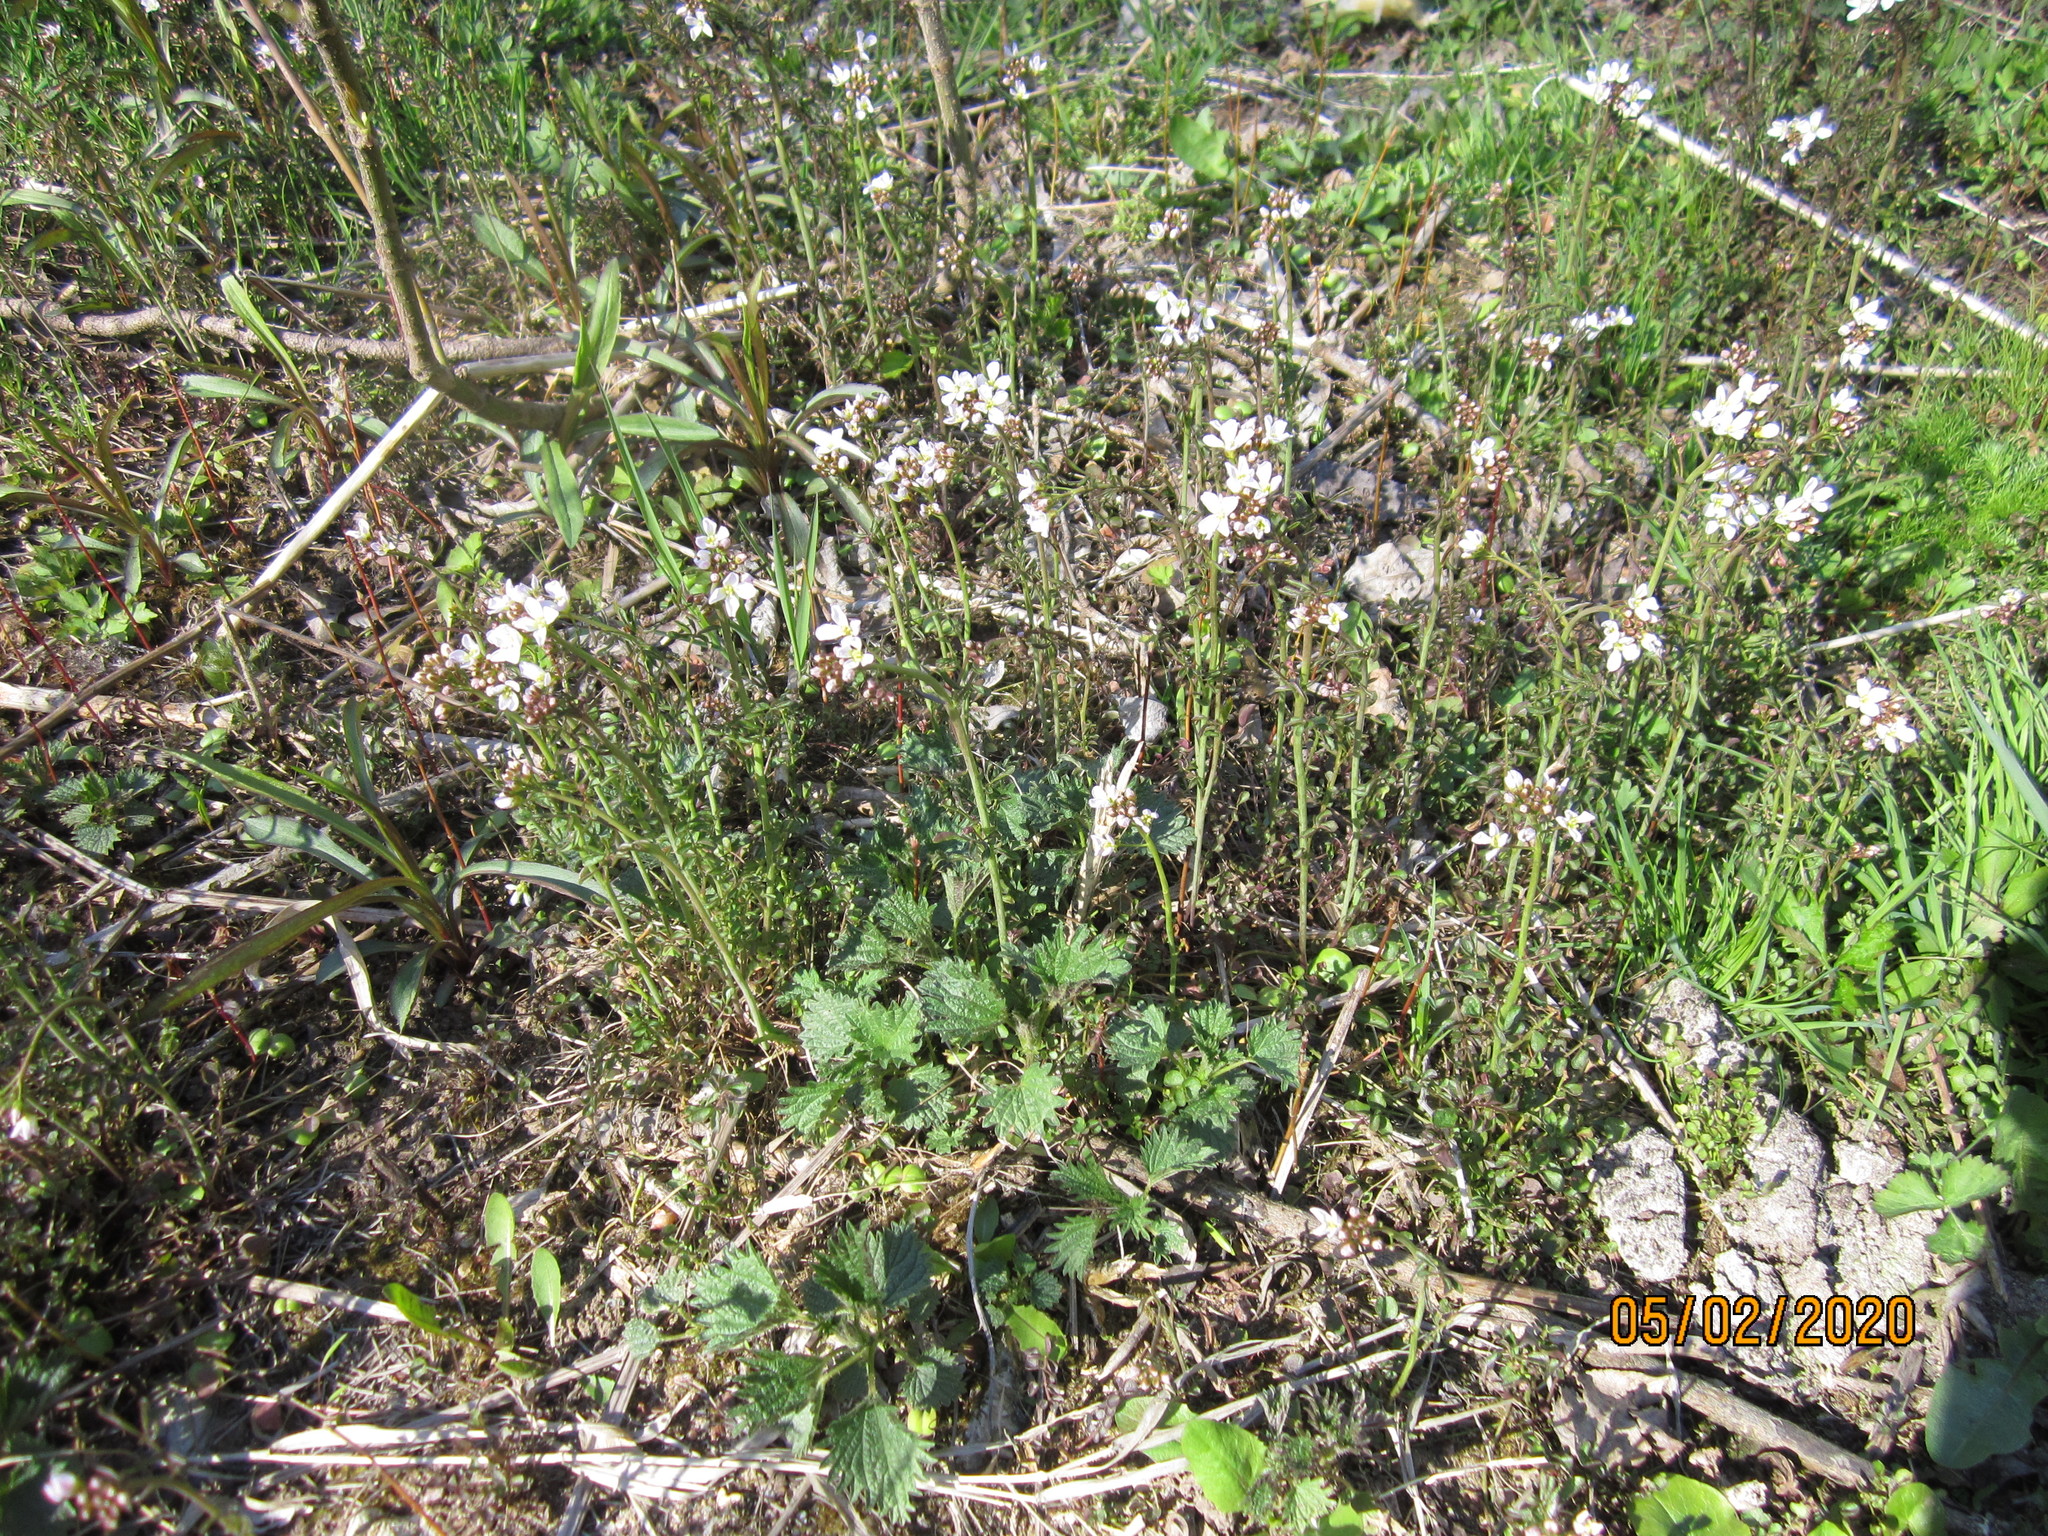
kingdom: Plantae
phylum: Tracheophyta
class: Magnoliopsida
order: Brassicales
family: Brassicaceae
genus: Cardamine
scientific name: Cardamine dentata
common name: Toothed bittercress
